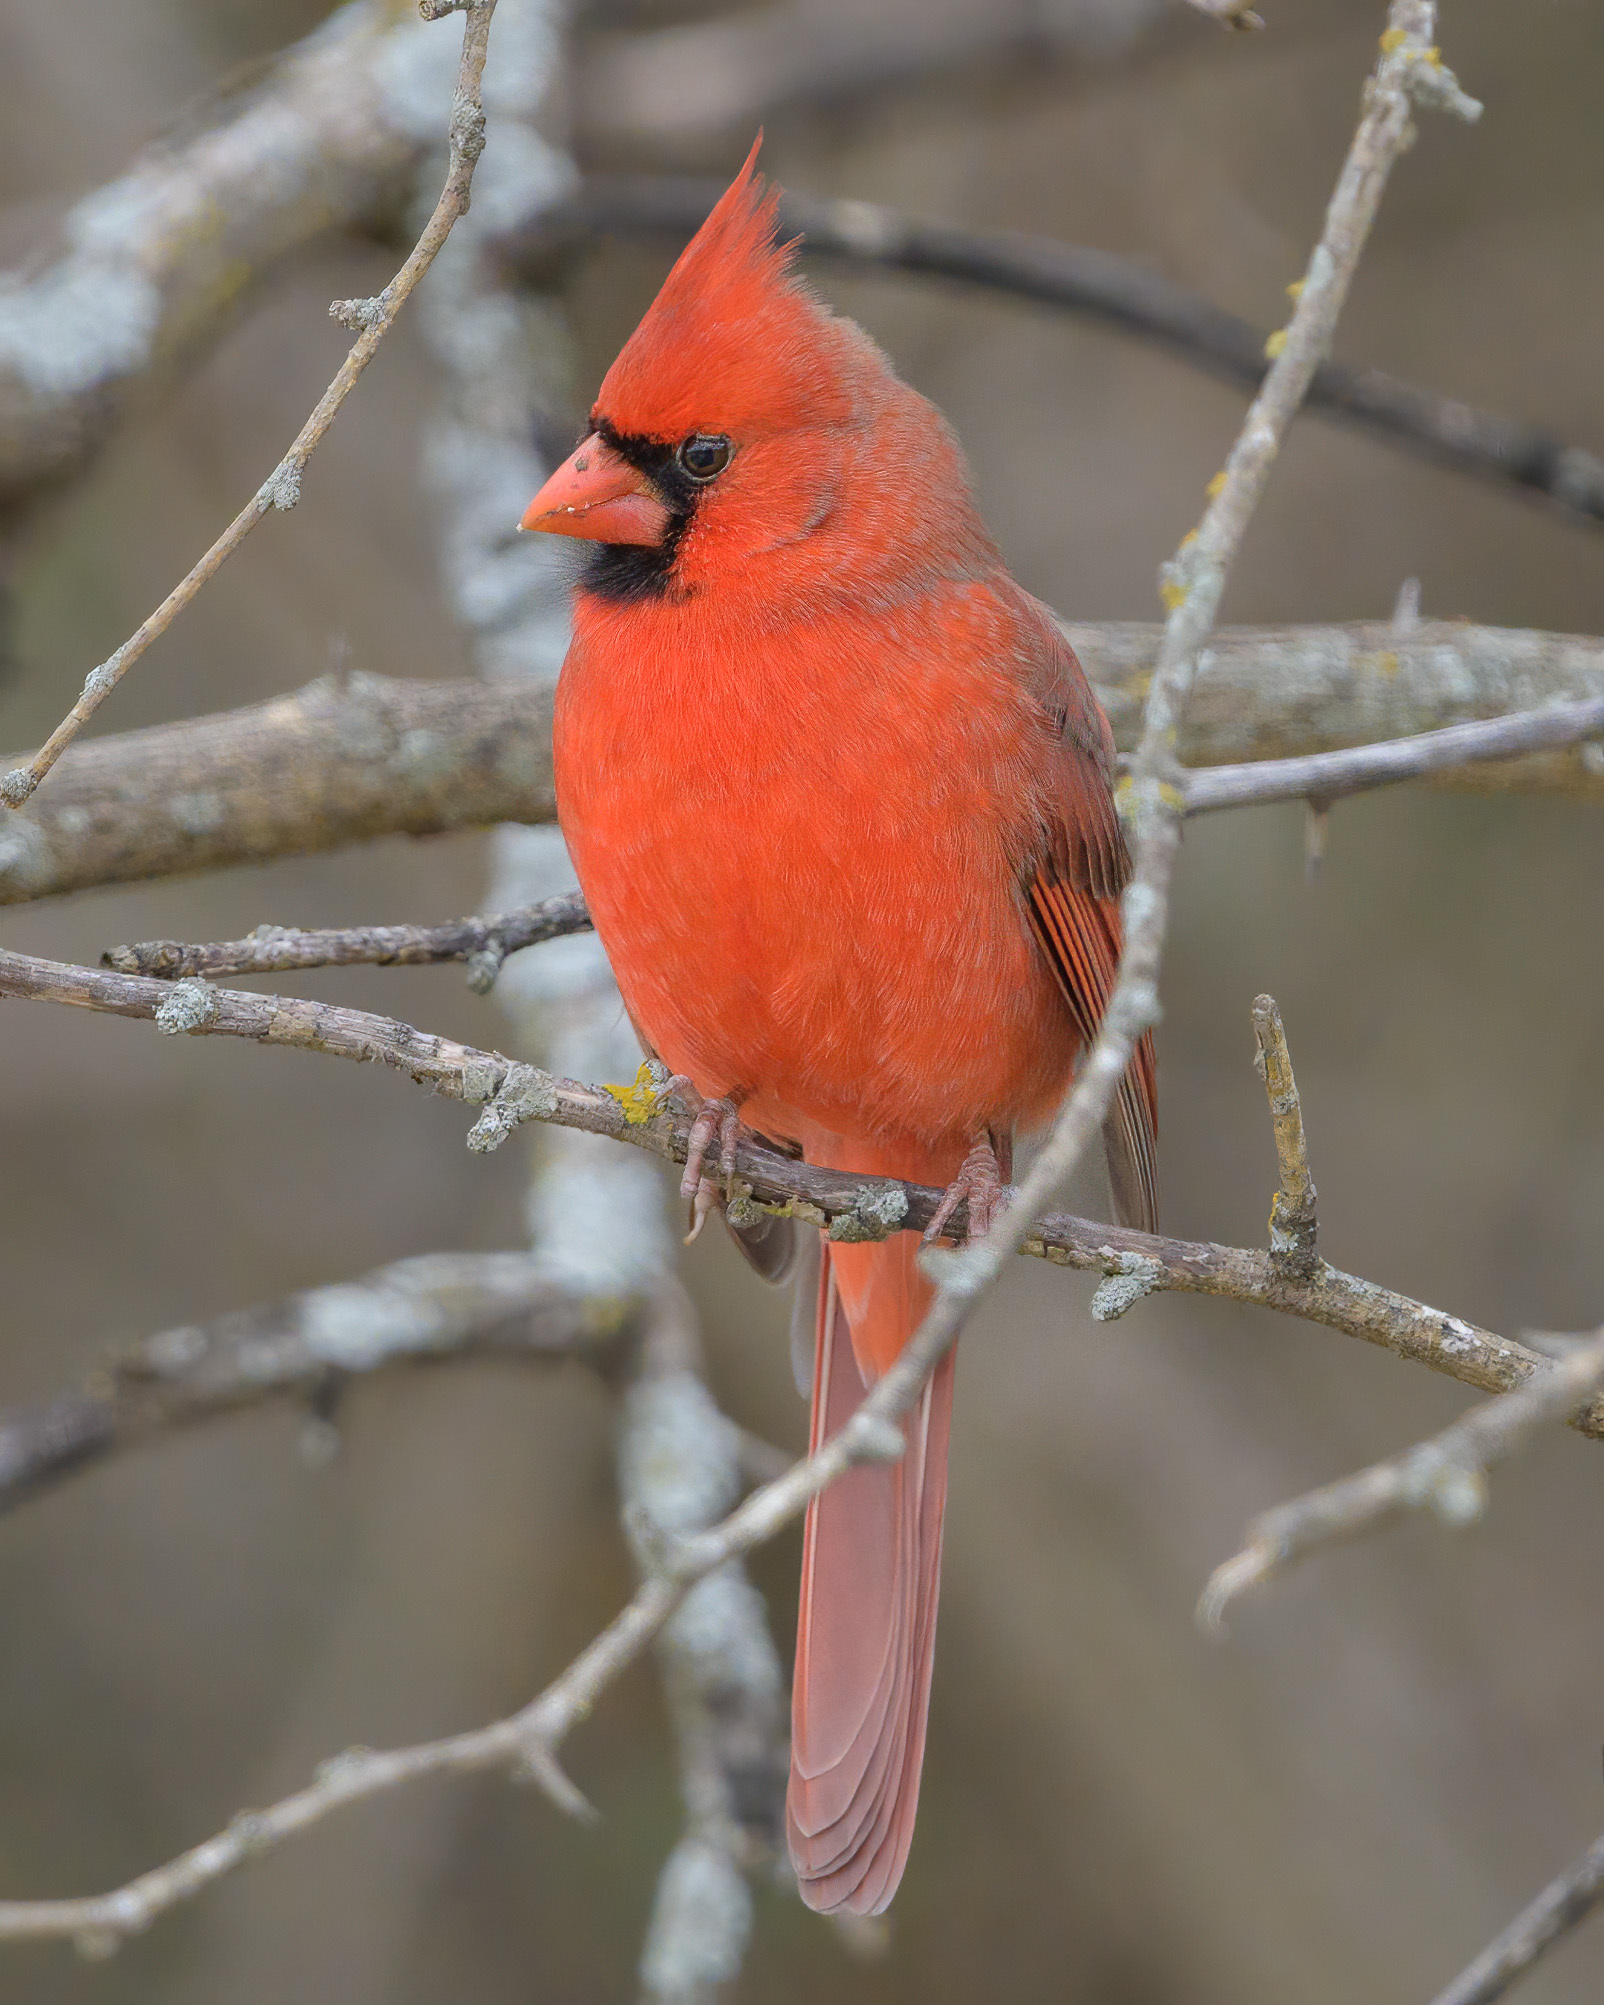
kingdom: Animalia
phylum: Chordata
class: Aves
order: Passeriformes
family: Cardinalidae
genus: Cardinalis
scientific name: Cardinalis cardinalis
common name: Northern cardinal
